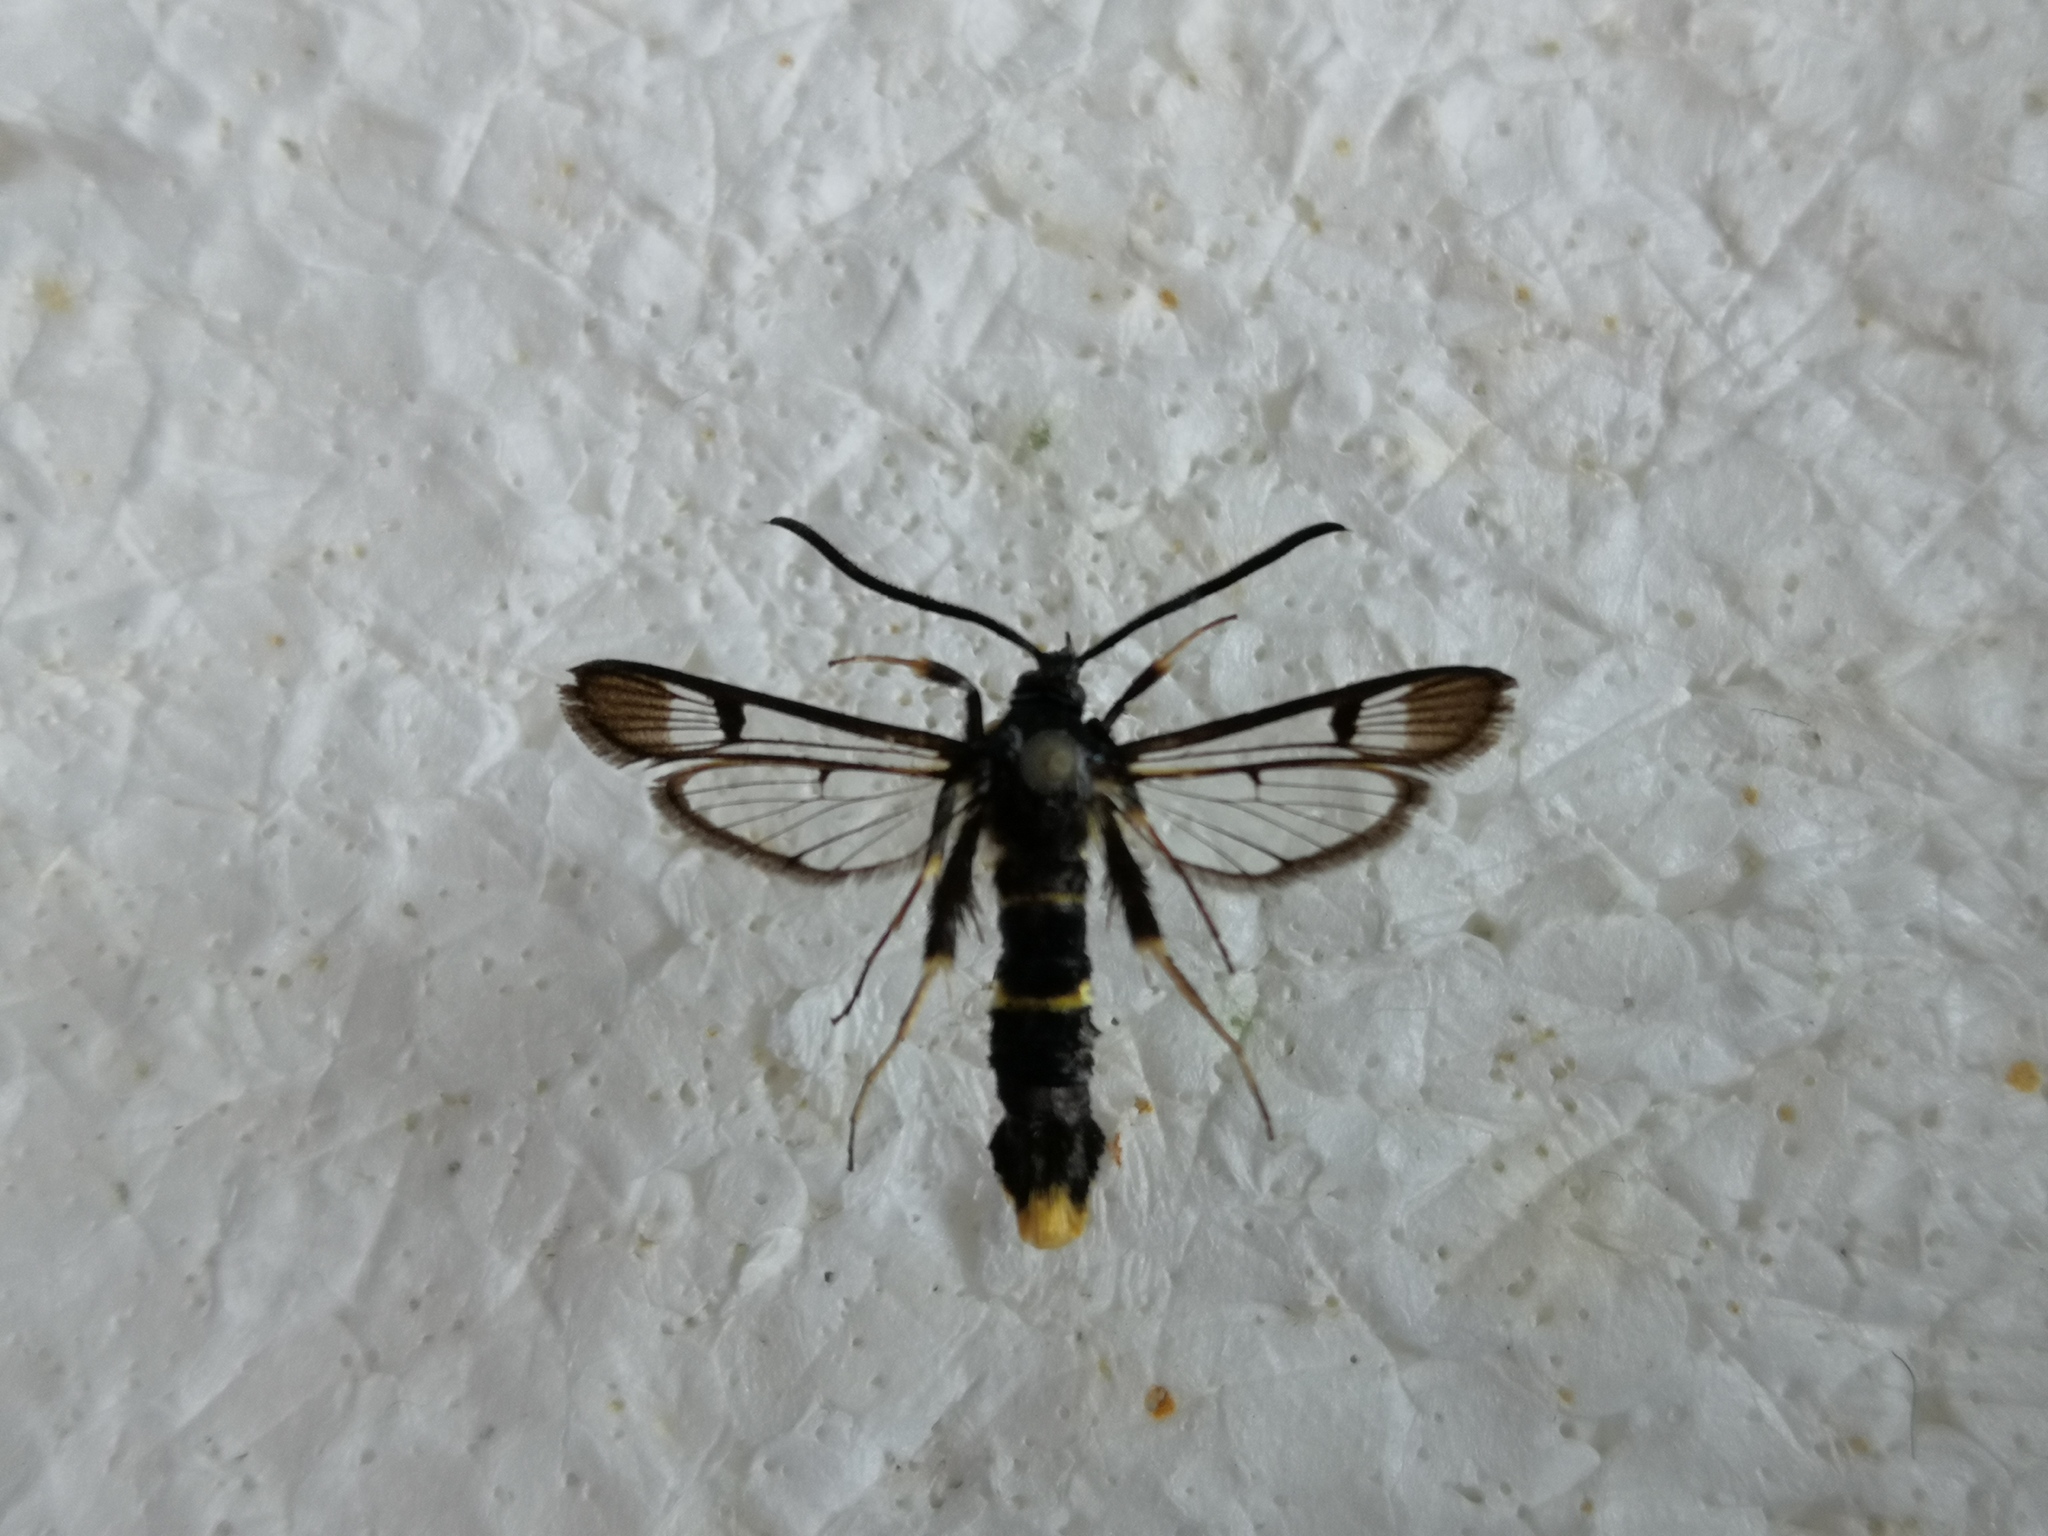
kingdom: Animalia
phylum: Arthropoda
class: Insecta
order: Lepidoptera
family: Sesiidae
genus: Synanthedon
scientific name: Synanthedon andrenaeformis
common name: Orange-tailed clearwing
